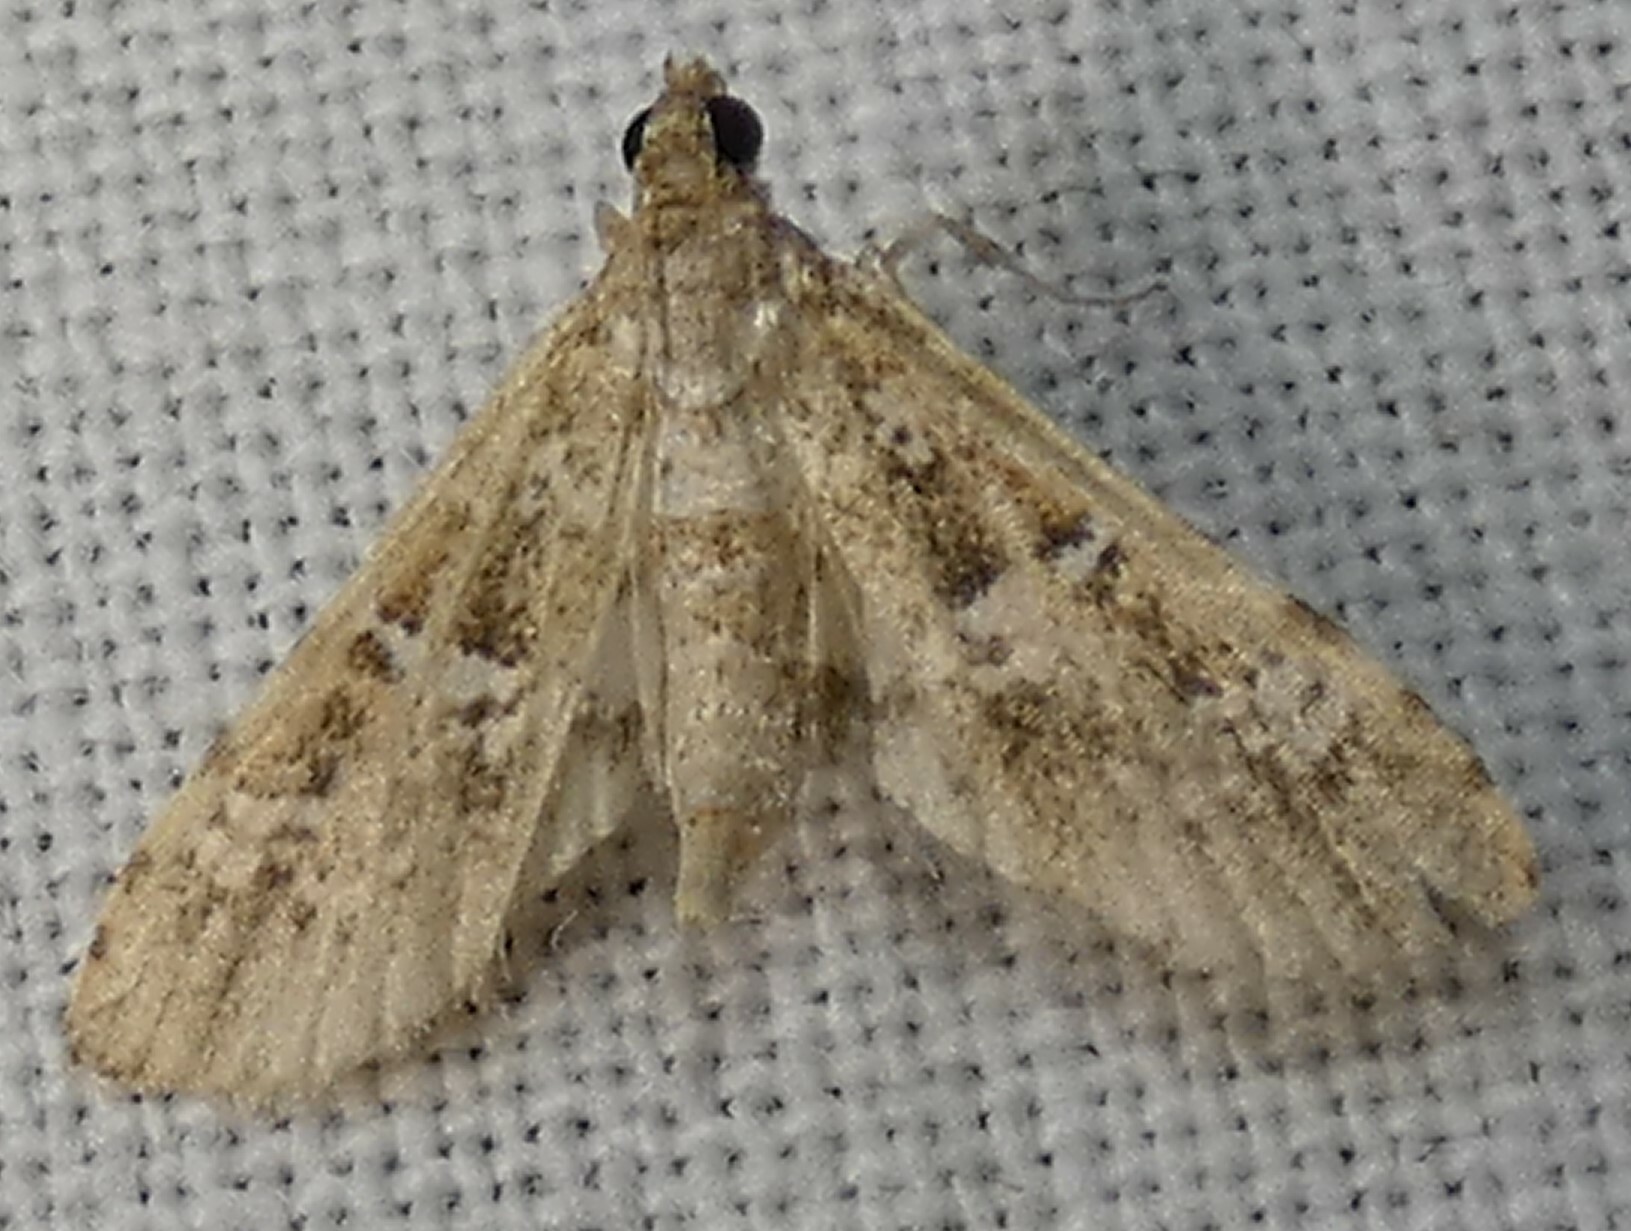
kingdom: Animalia
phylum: Arthropoda
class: Insecta
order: Lepidoptera
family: Crambidae
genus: Samea
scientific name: Samea multiplicalis
